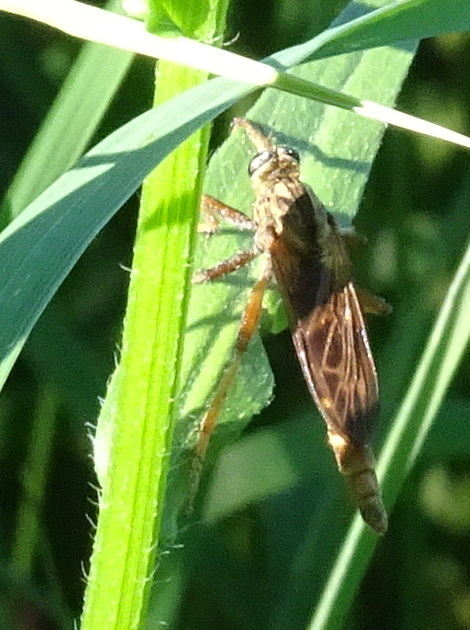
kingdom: Animalia
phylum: Arthropoda
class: Insecta
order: Diptera
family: Asilidae
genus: Asilus
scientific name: Asilus sericeus
